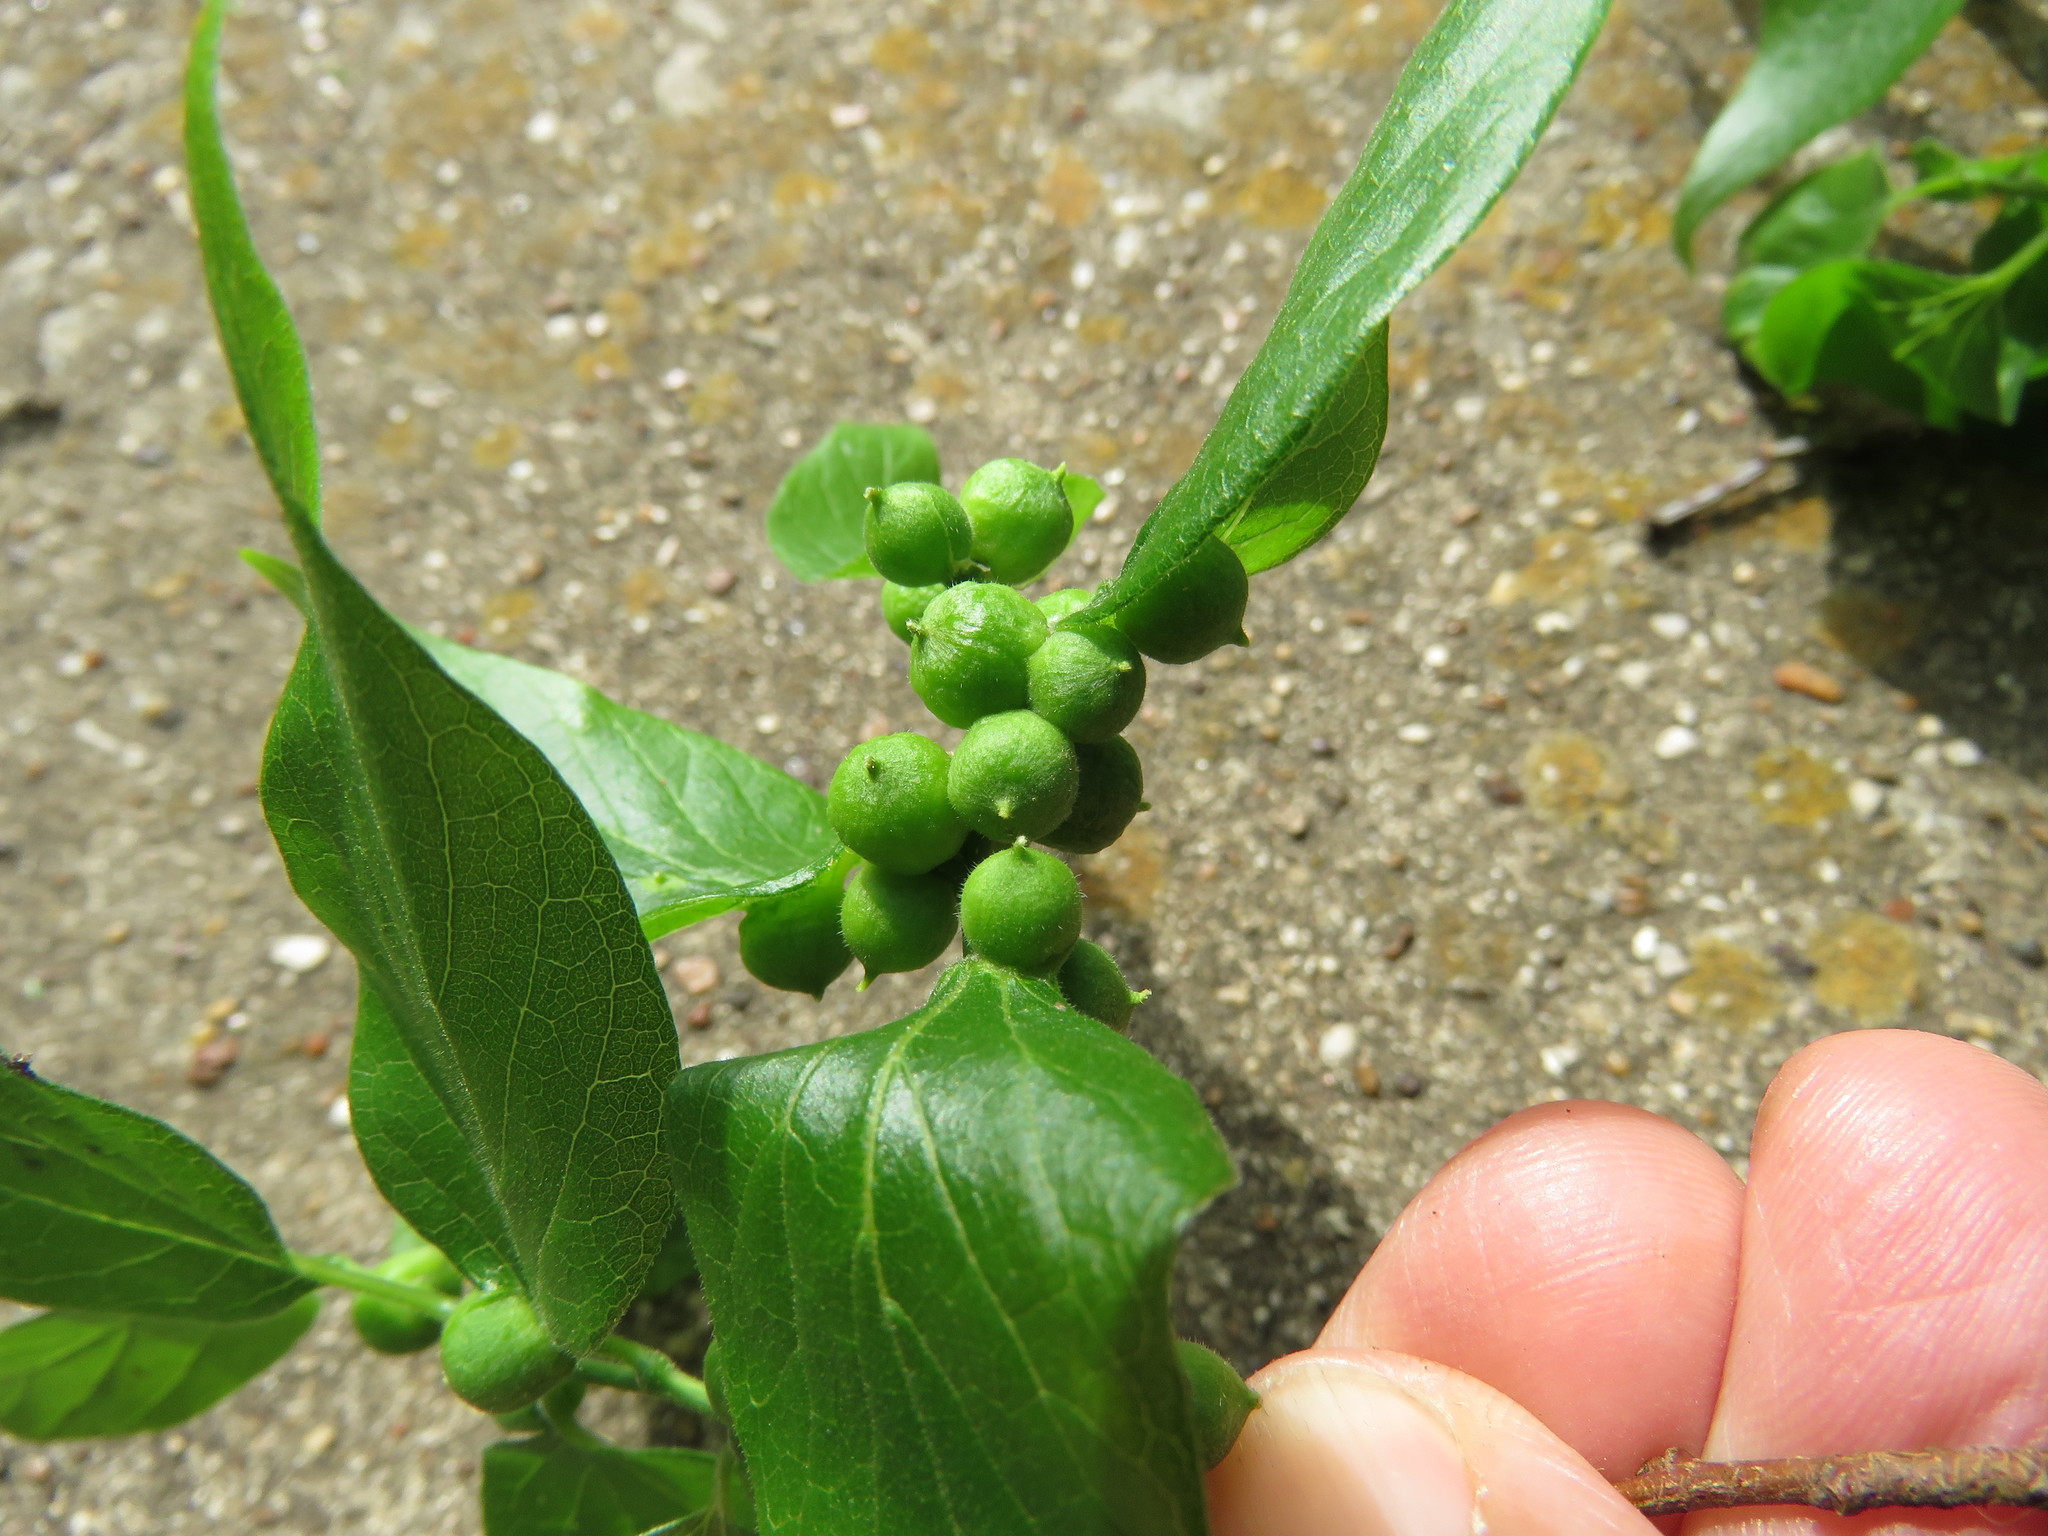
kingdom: Animalia
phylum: Arthropoda
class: Insecta
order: Diptera
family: Cecidomyiidae
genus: Celticecis
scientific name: Celticecis oviformis
